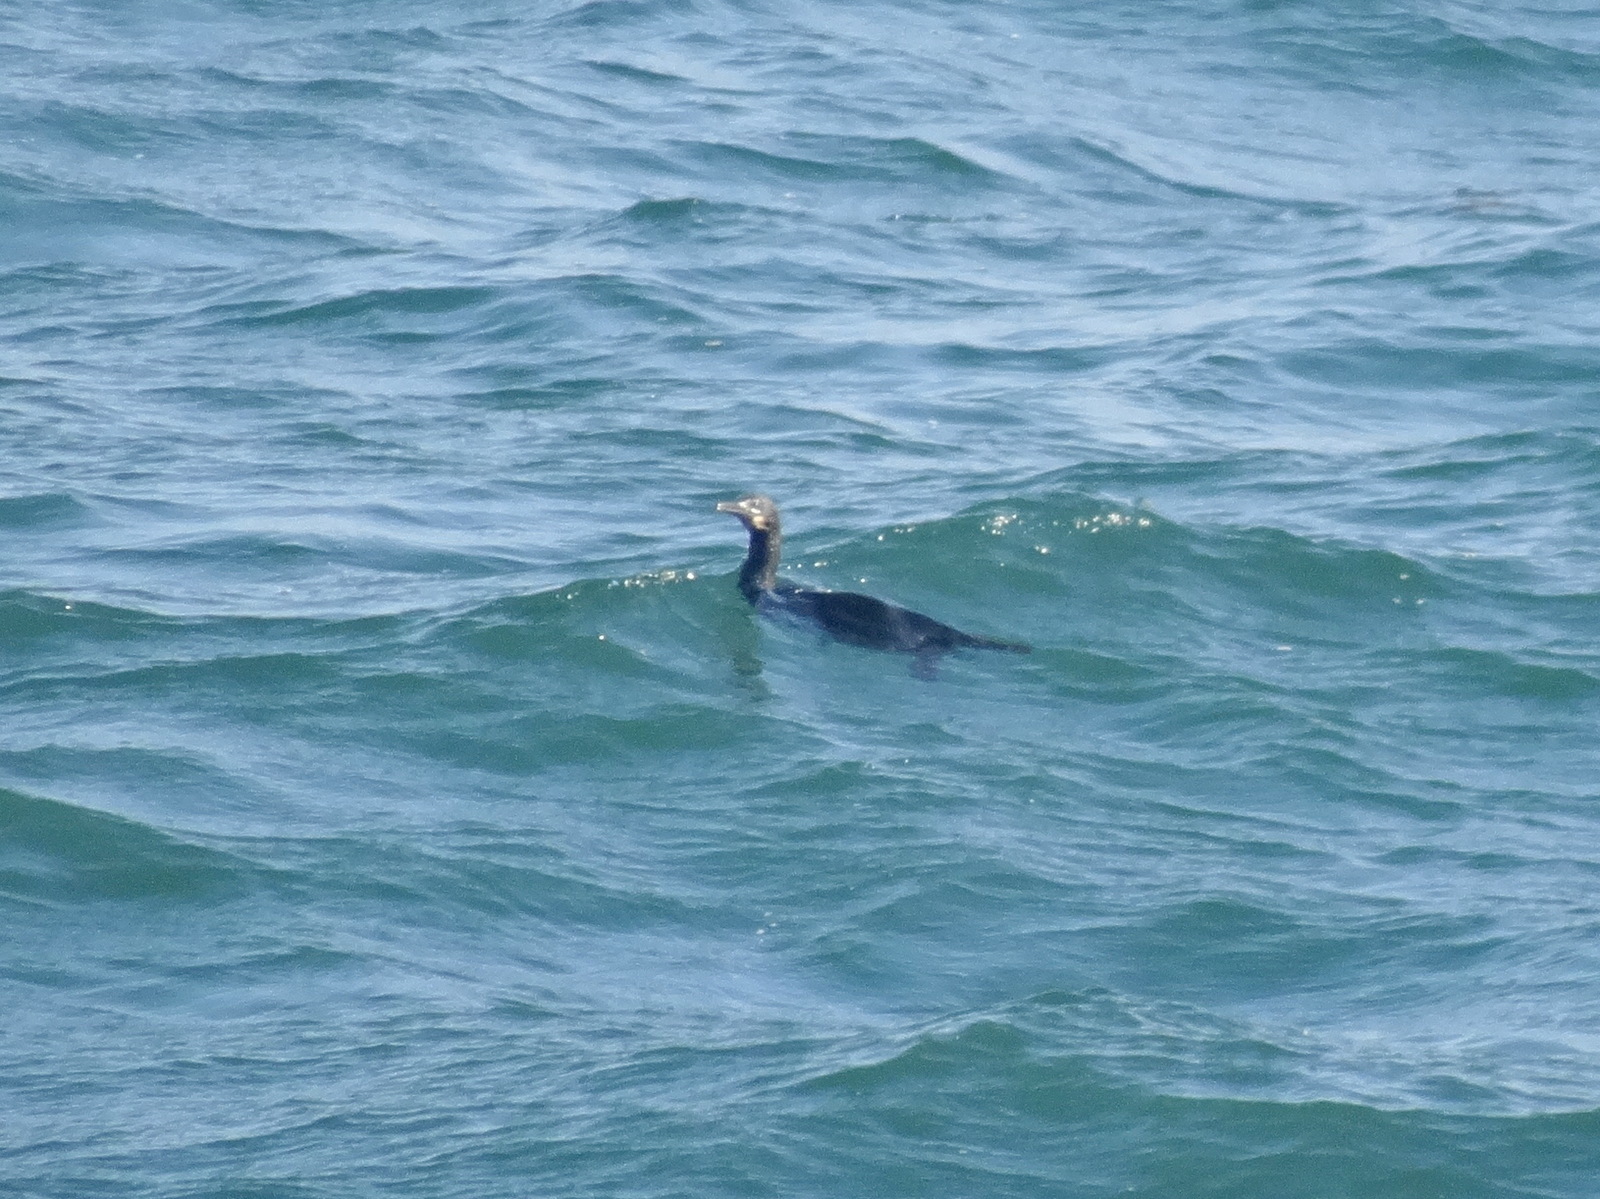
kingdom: Animalia
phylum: Chordata
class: Aves
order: Suliformes
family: Phalacrocoracidae
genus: Urile
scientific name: Urile penicillatus
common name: Brandt's cormorant
